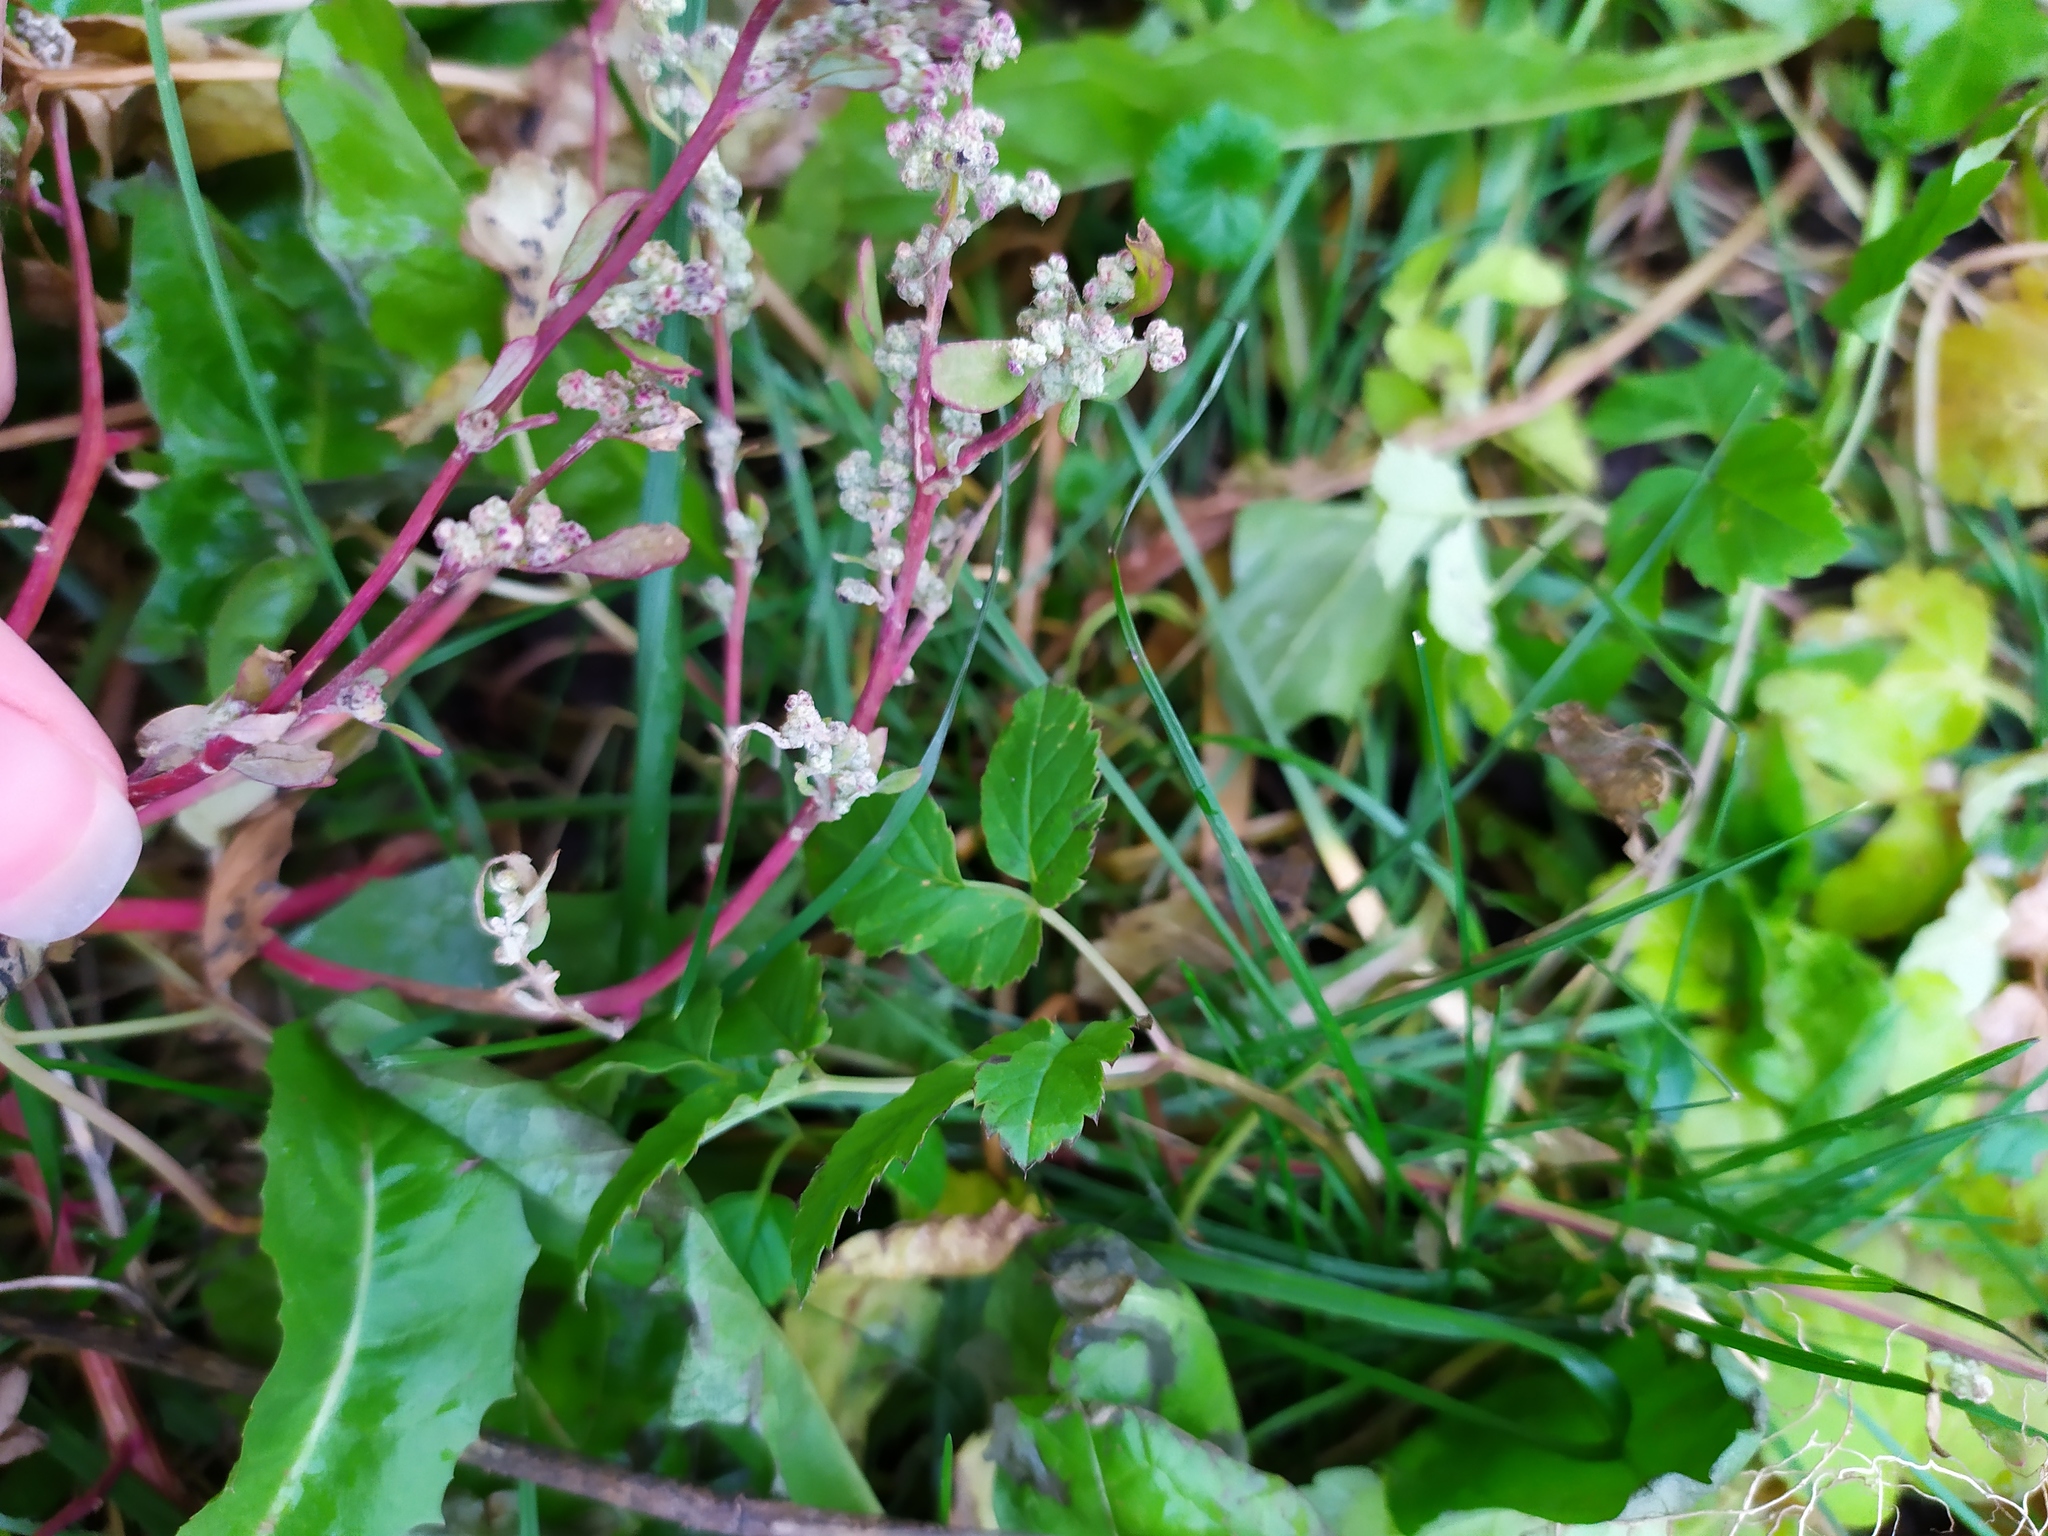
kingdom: Plantae
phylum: Tracheophyta
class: Magnoliopsida
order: Caryophyllales
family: Amaranthaceae
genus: Oxybasis
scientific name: Oxybasis glauca
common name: Glaucous goosefoot
